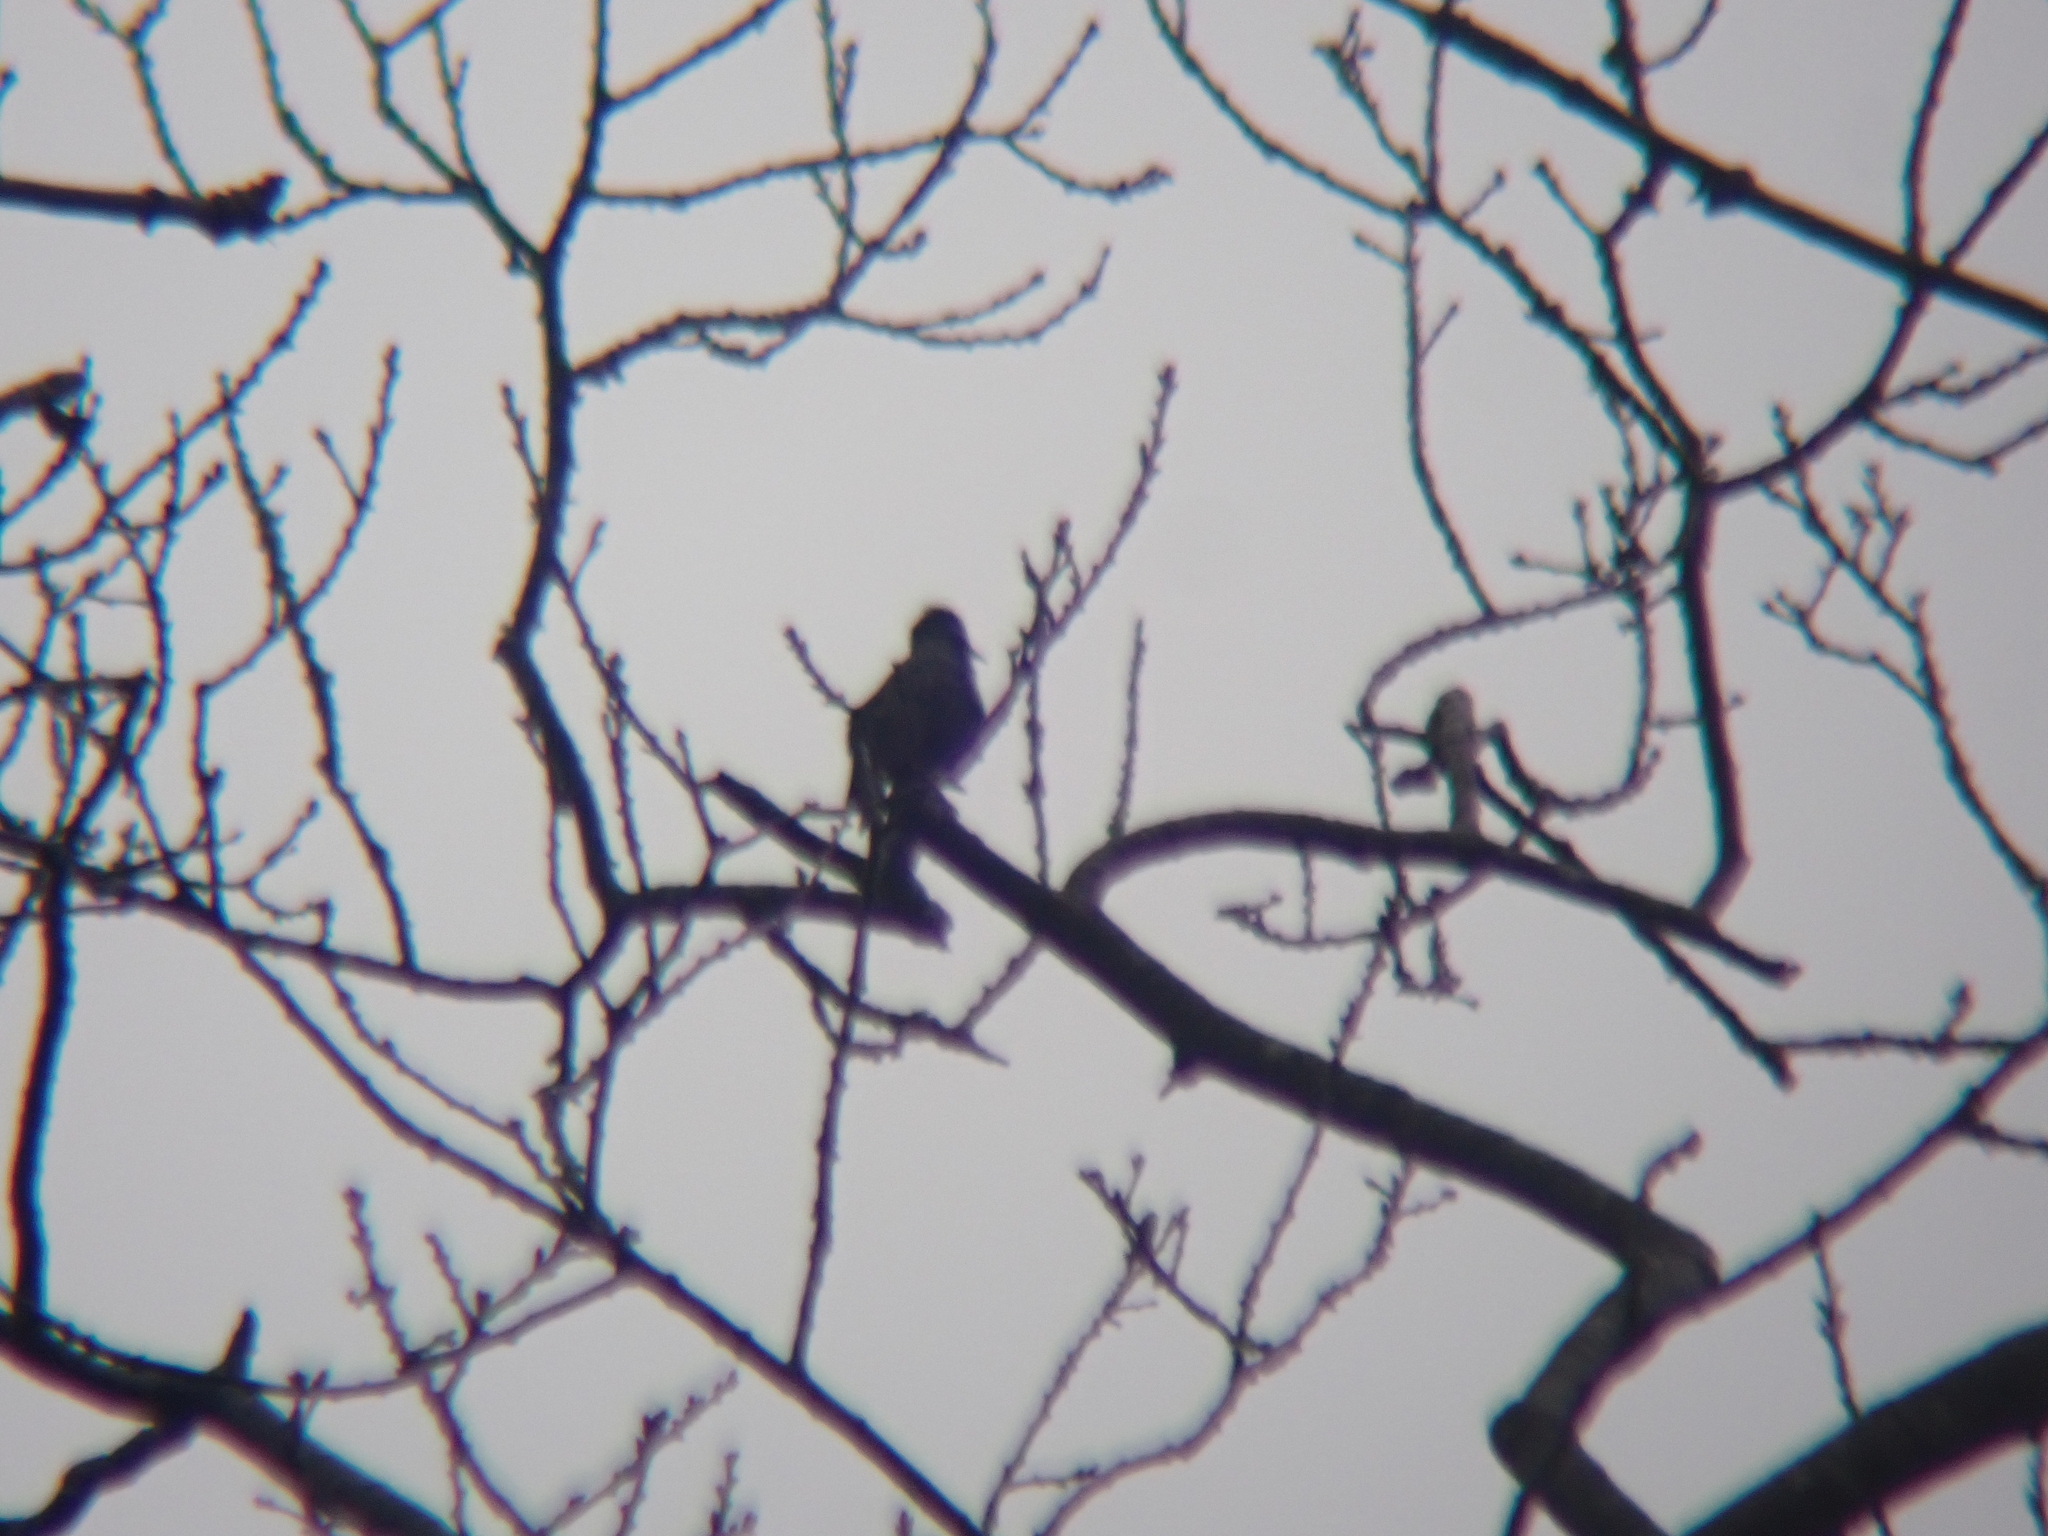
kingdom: Animalia
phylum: Chordata
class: Aves
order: Passeriformes
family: Sturnidae
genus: Sturnus
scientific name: Sturnus vulgaris
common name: Common starling
